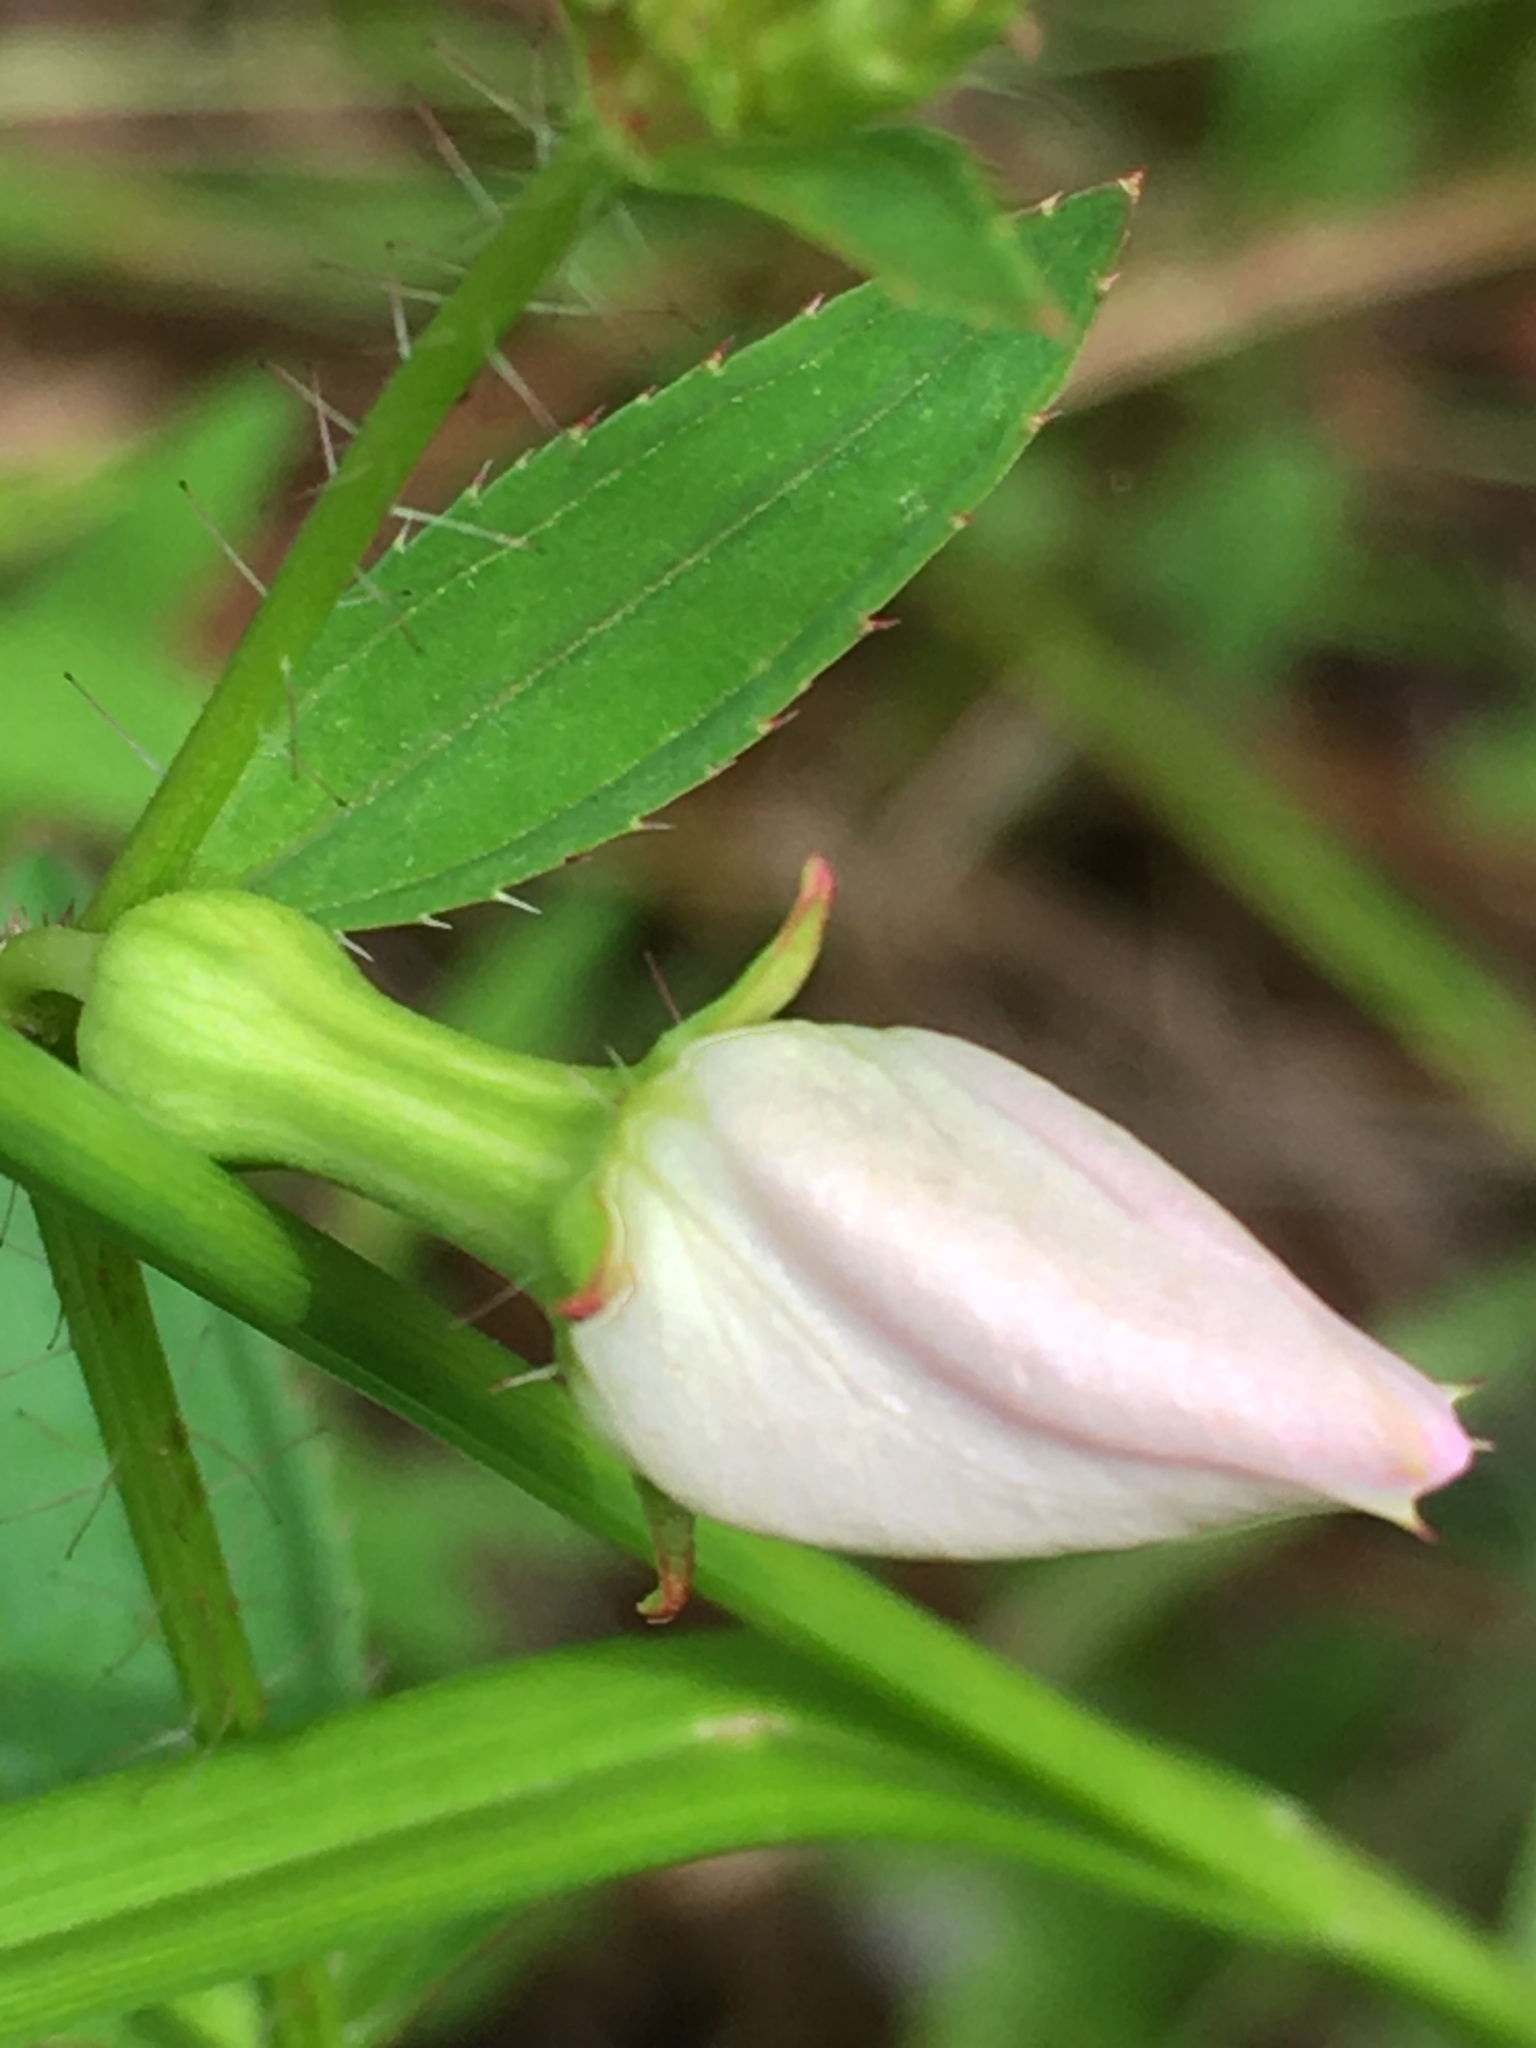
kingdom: Plantae
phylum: Tracheophyta
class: Magnoliopsida
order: Myrtales
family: Melastomataceae
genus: Rhexia
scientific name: Rhexia mariana
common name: Dull meadow-pitcher
